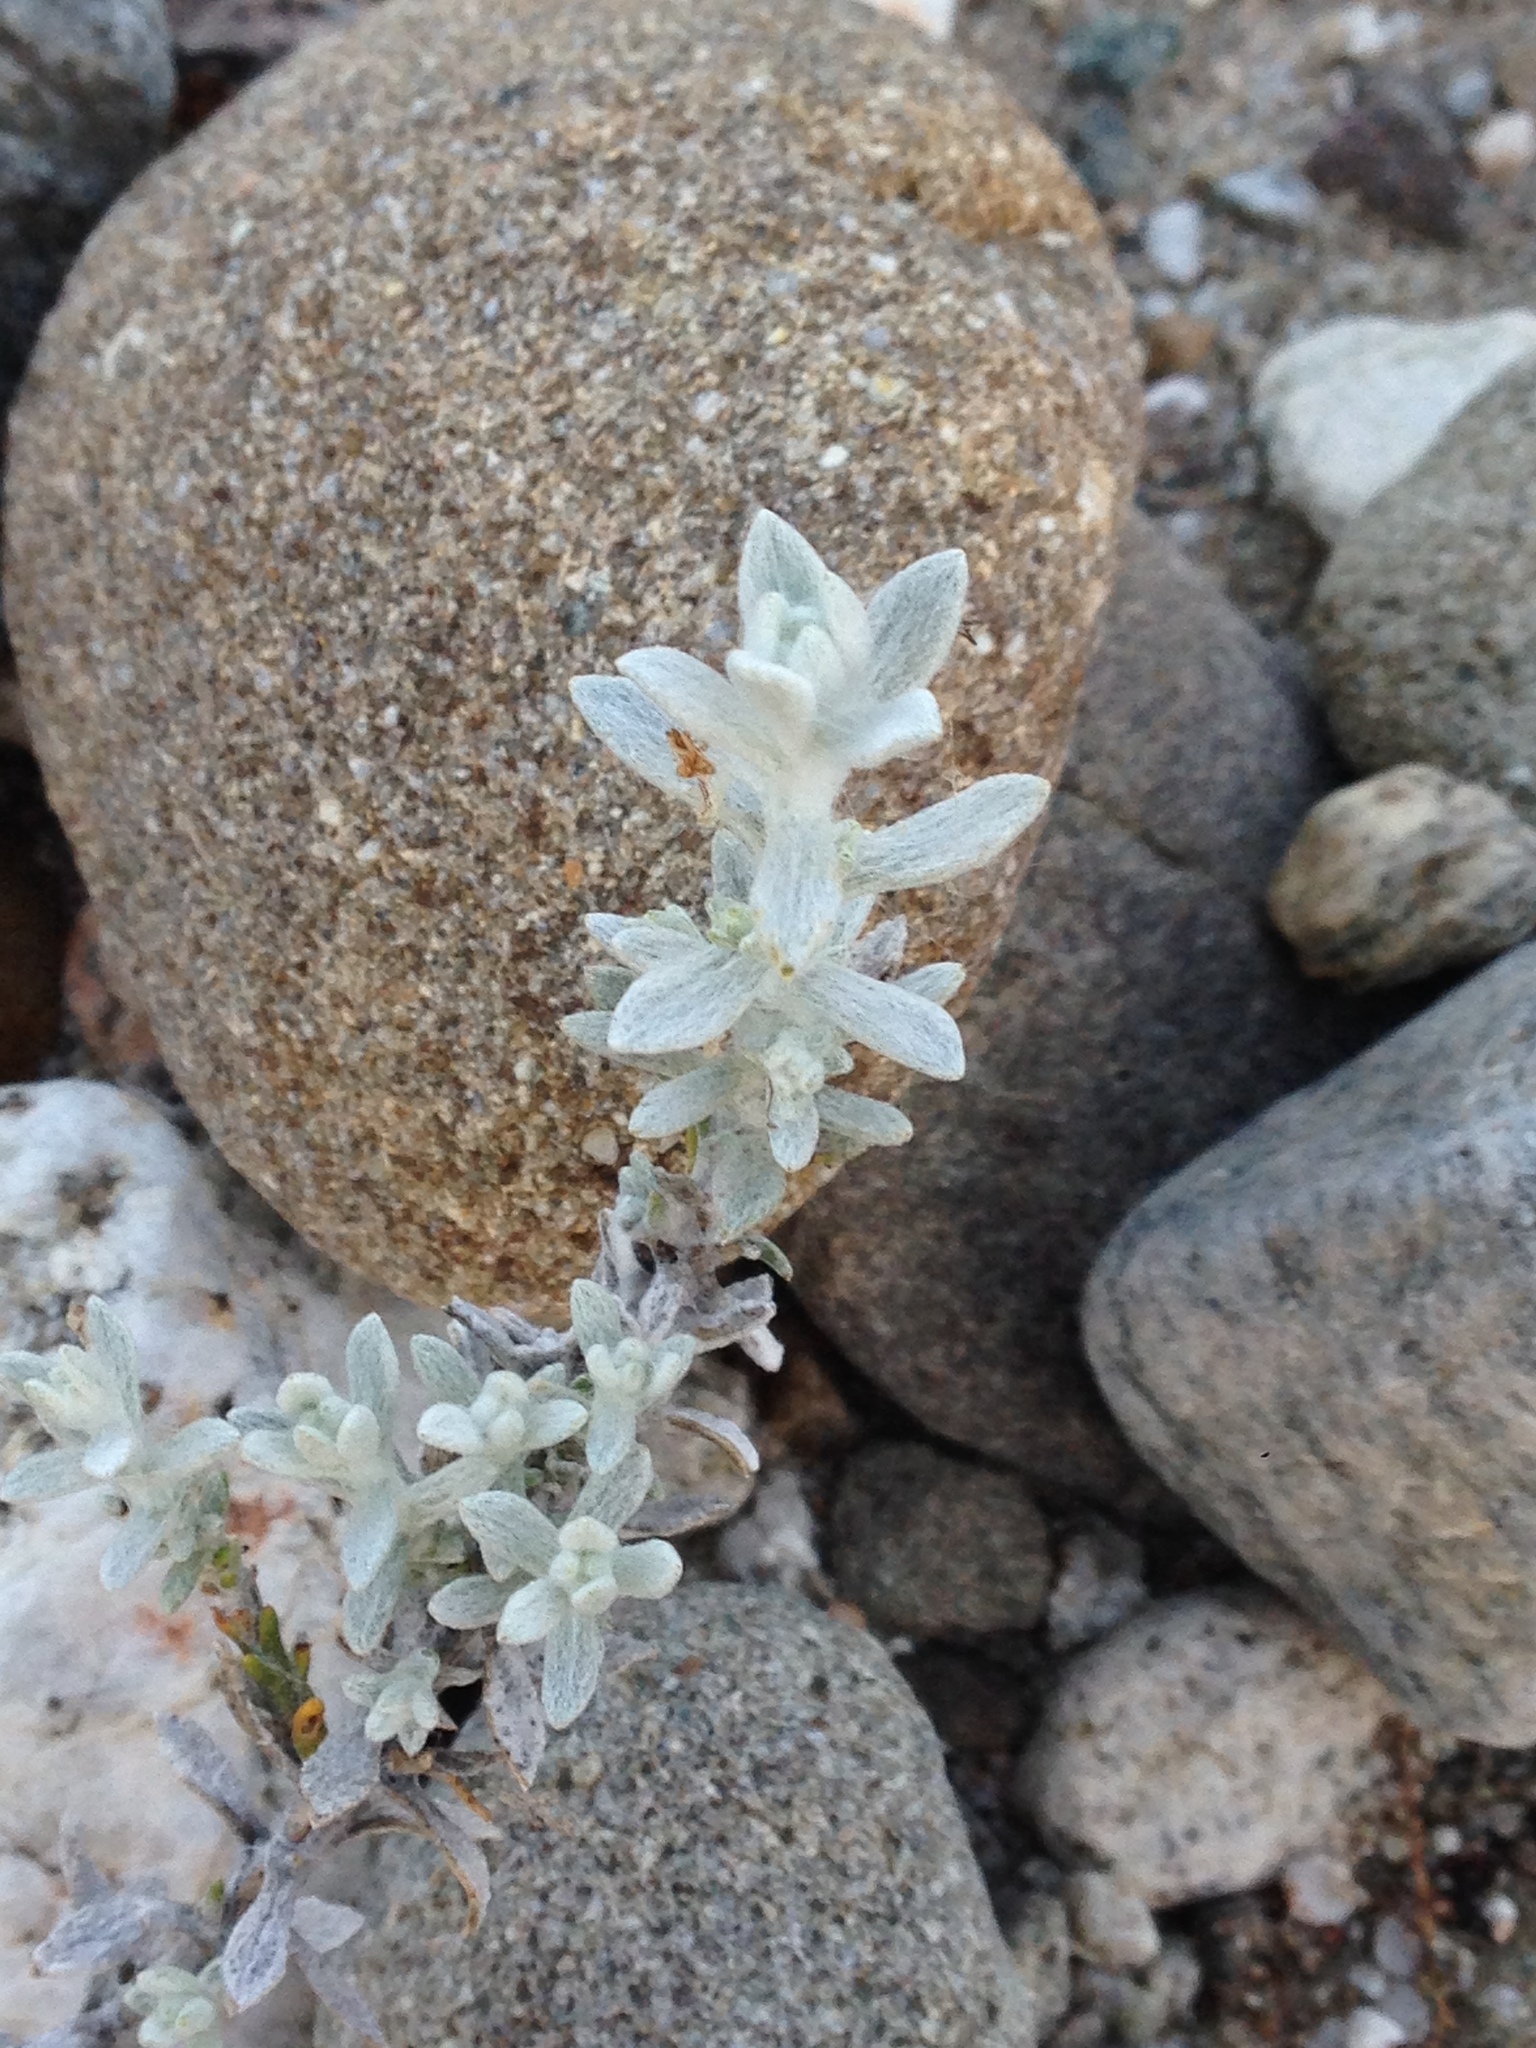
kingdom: Plantae
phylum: Tracheophyta
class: Magnoliopsida
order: Asterales
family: Asteraceae
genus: Lepidospartum
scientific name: Lepidospartum squamatum
